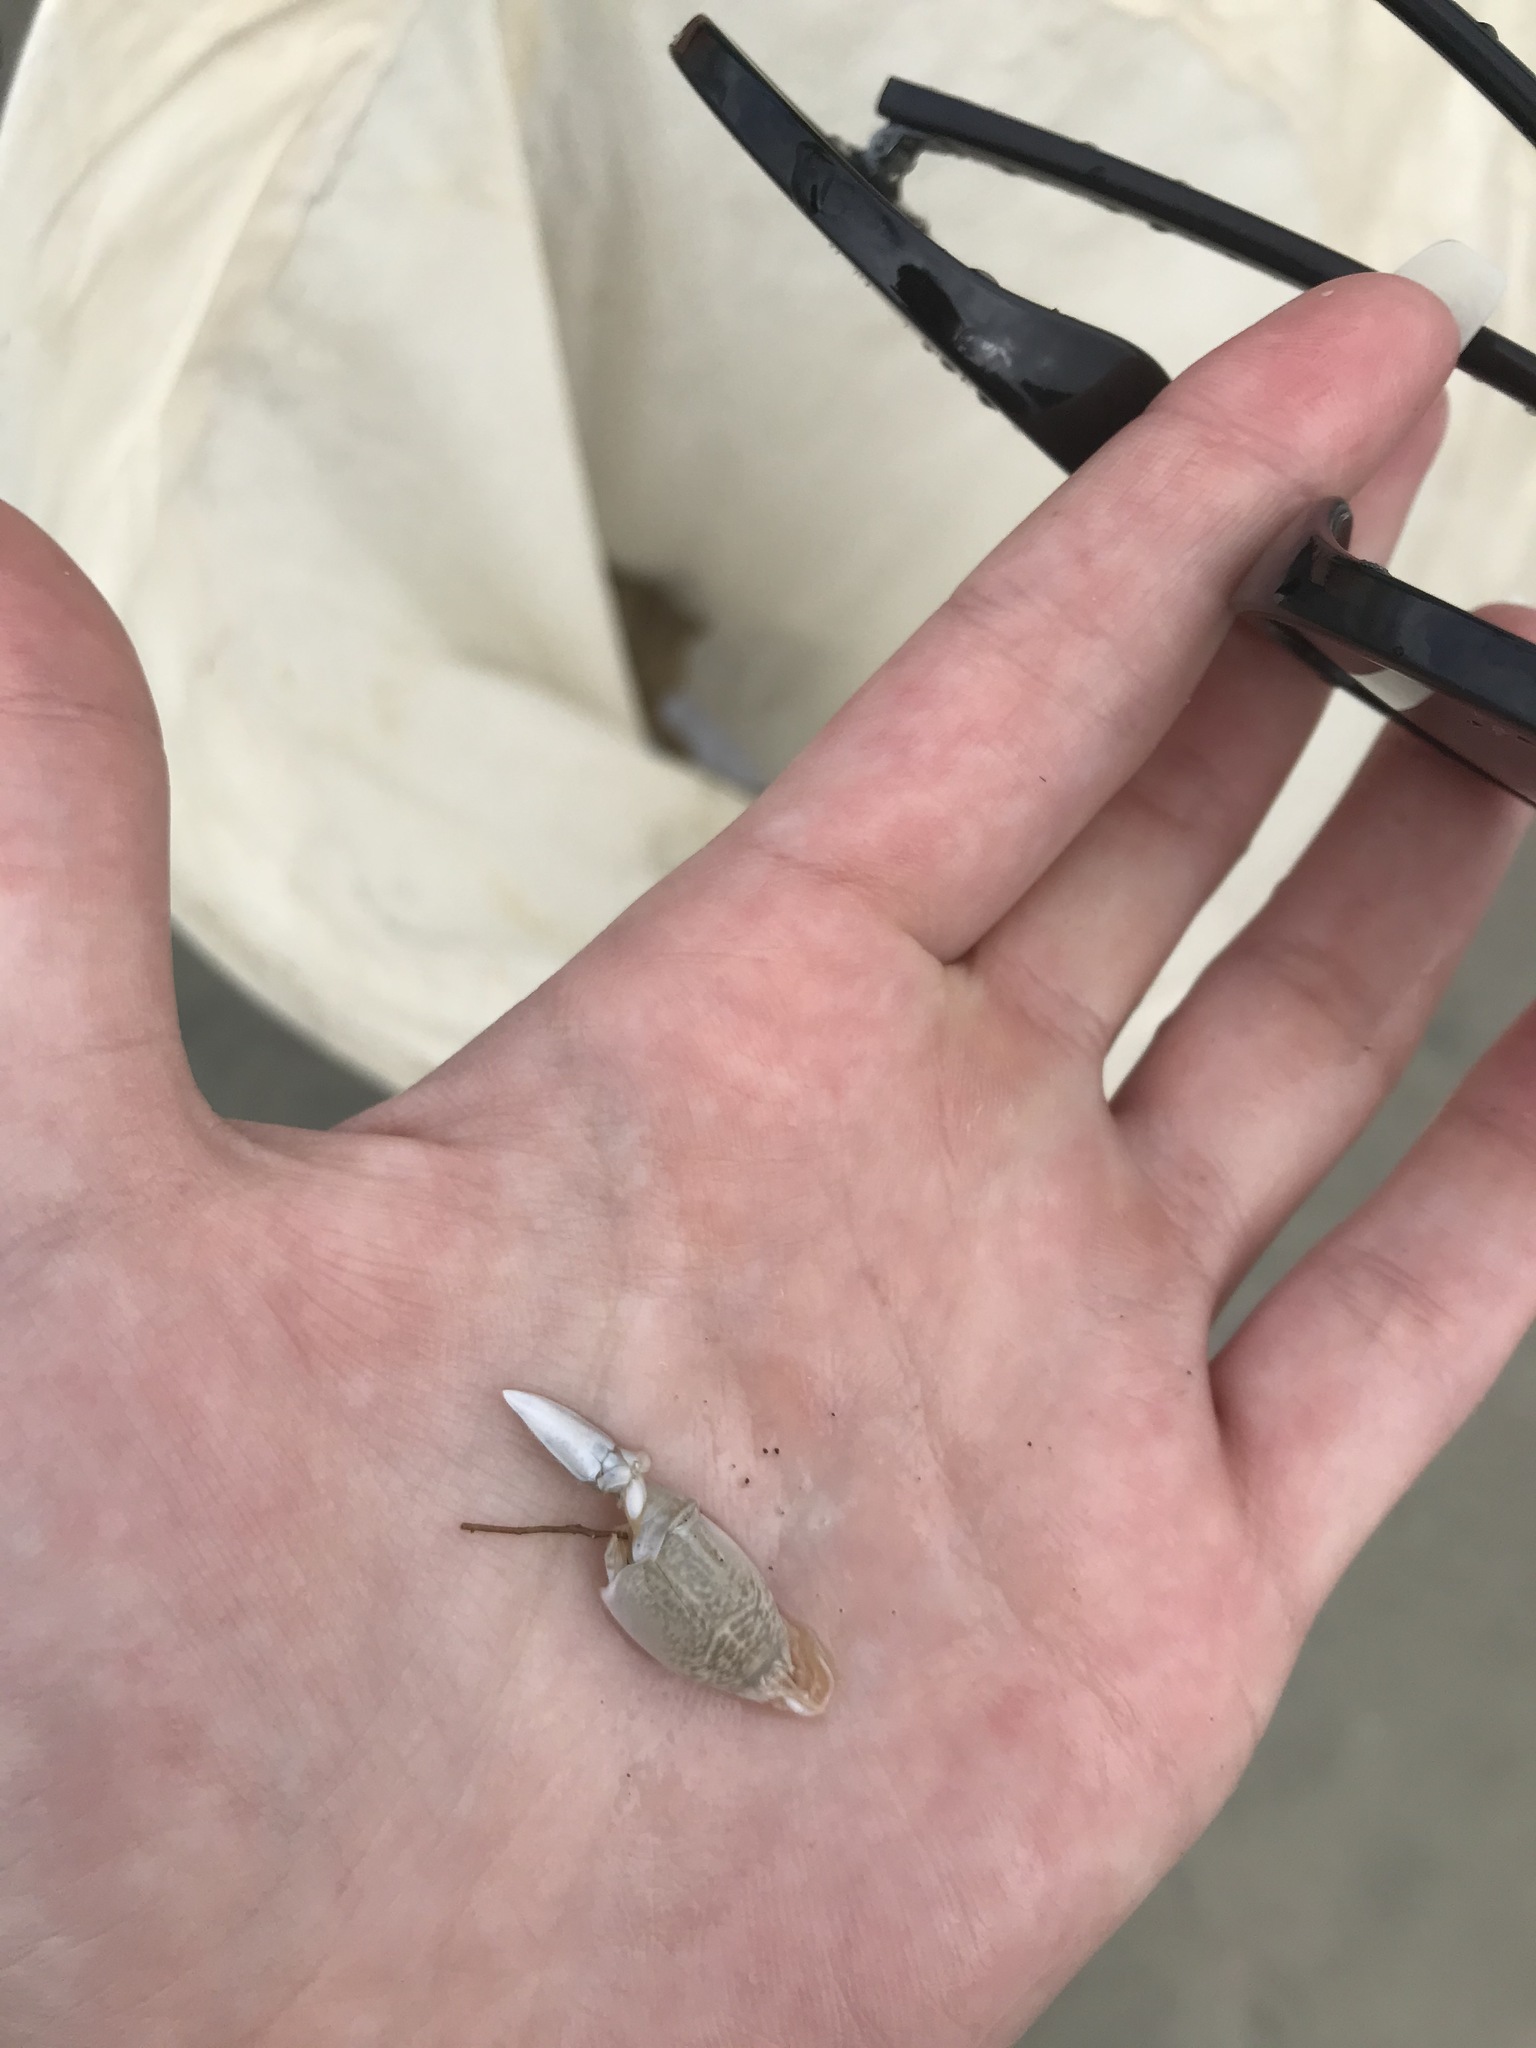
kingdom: Animalia
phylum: Arthropoda
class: Malacostraca
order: Decapoda
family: Hippidae
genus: Emerita
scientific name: Emerita talpoida
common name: Atlantic sand crab
